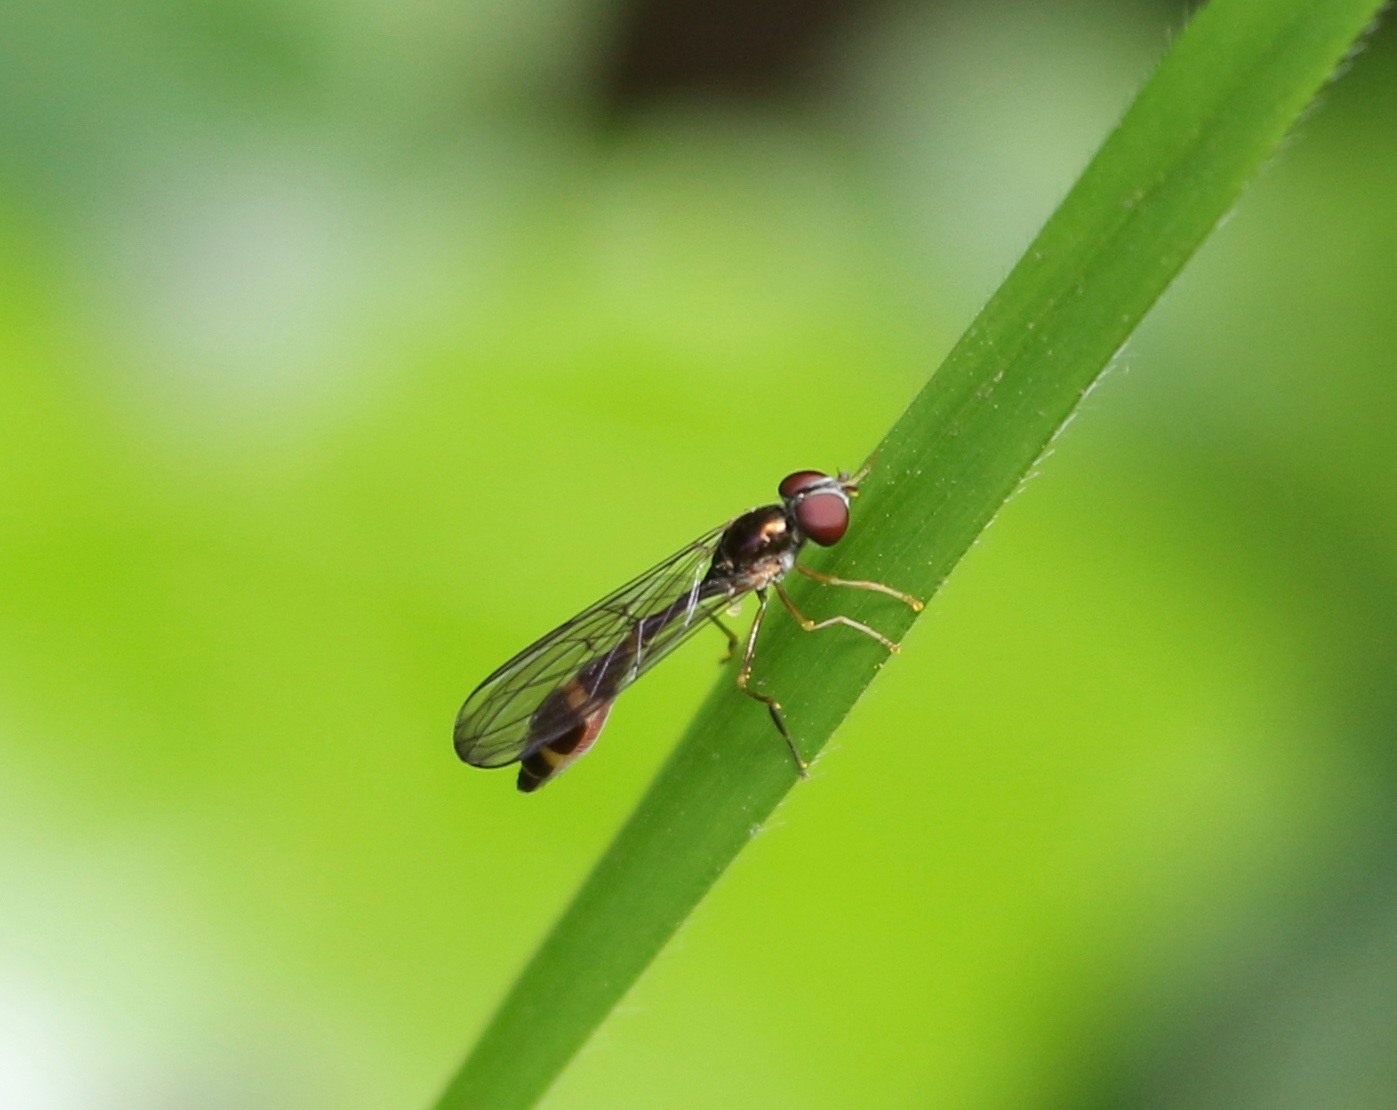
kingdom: Animalia
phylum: Arthropoda
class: Insecta
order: Diptera
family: Syrphidae
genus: Baccha
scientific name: Baccha elongata
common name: Common dainty
